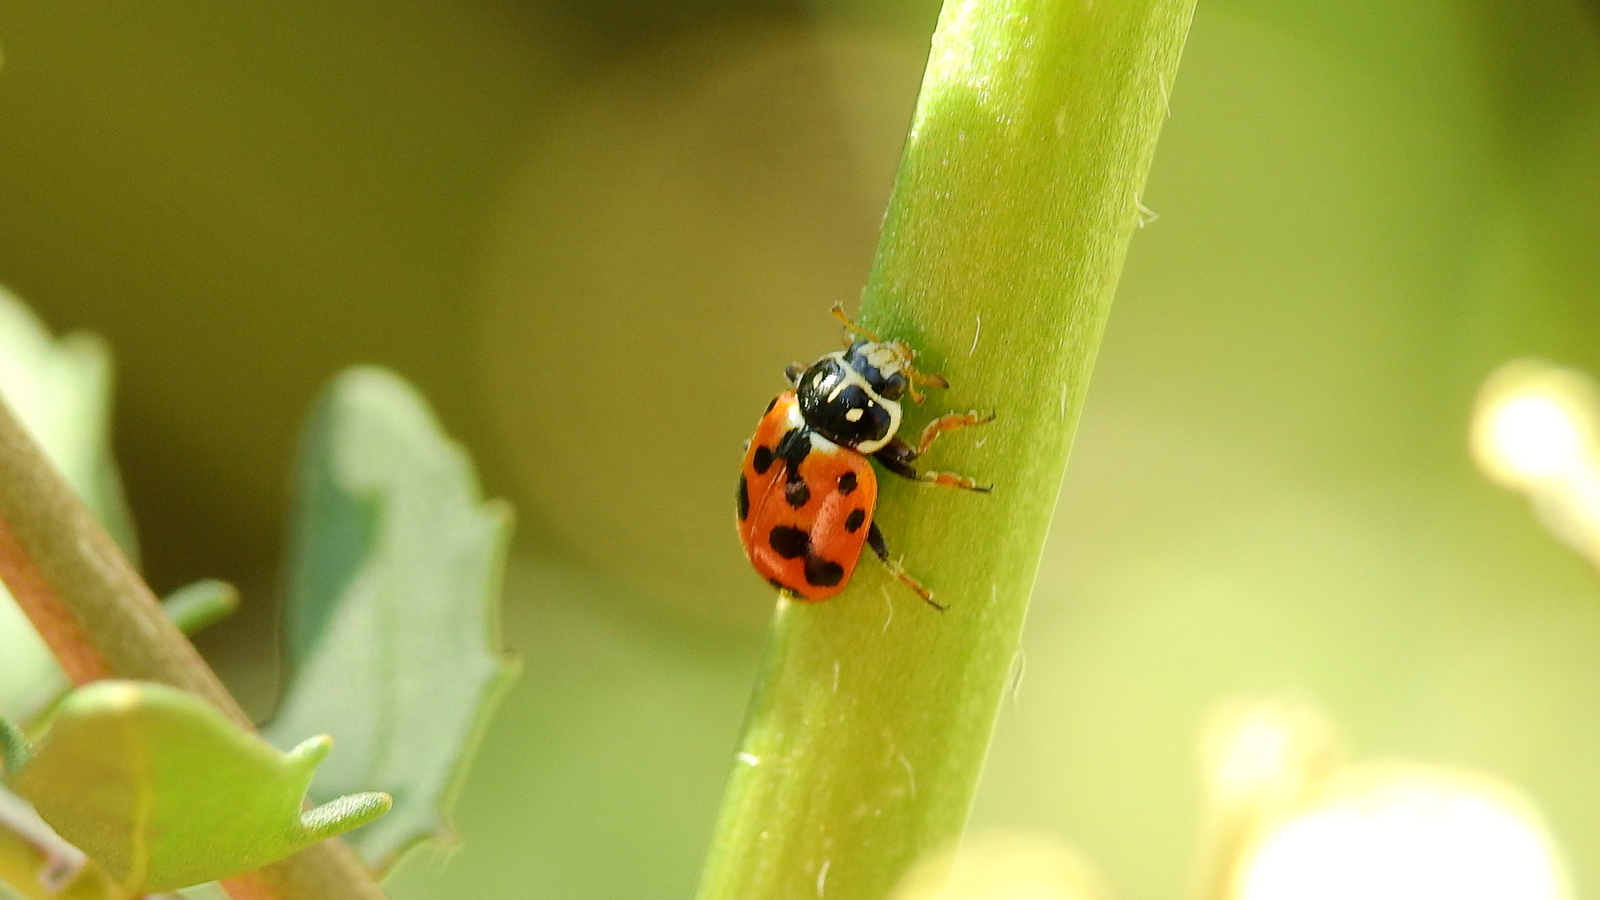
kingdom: Animalia
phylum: Arthropoda
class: Insecta
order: Coleoptera
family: Coccinellidae
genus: Hippodamia
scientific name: Hippodamia variegata
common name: Ladybird beetle
